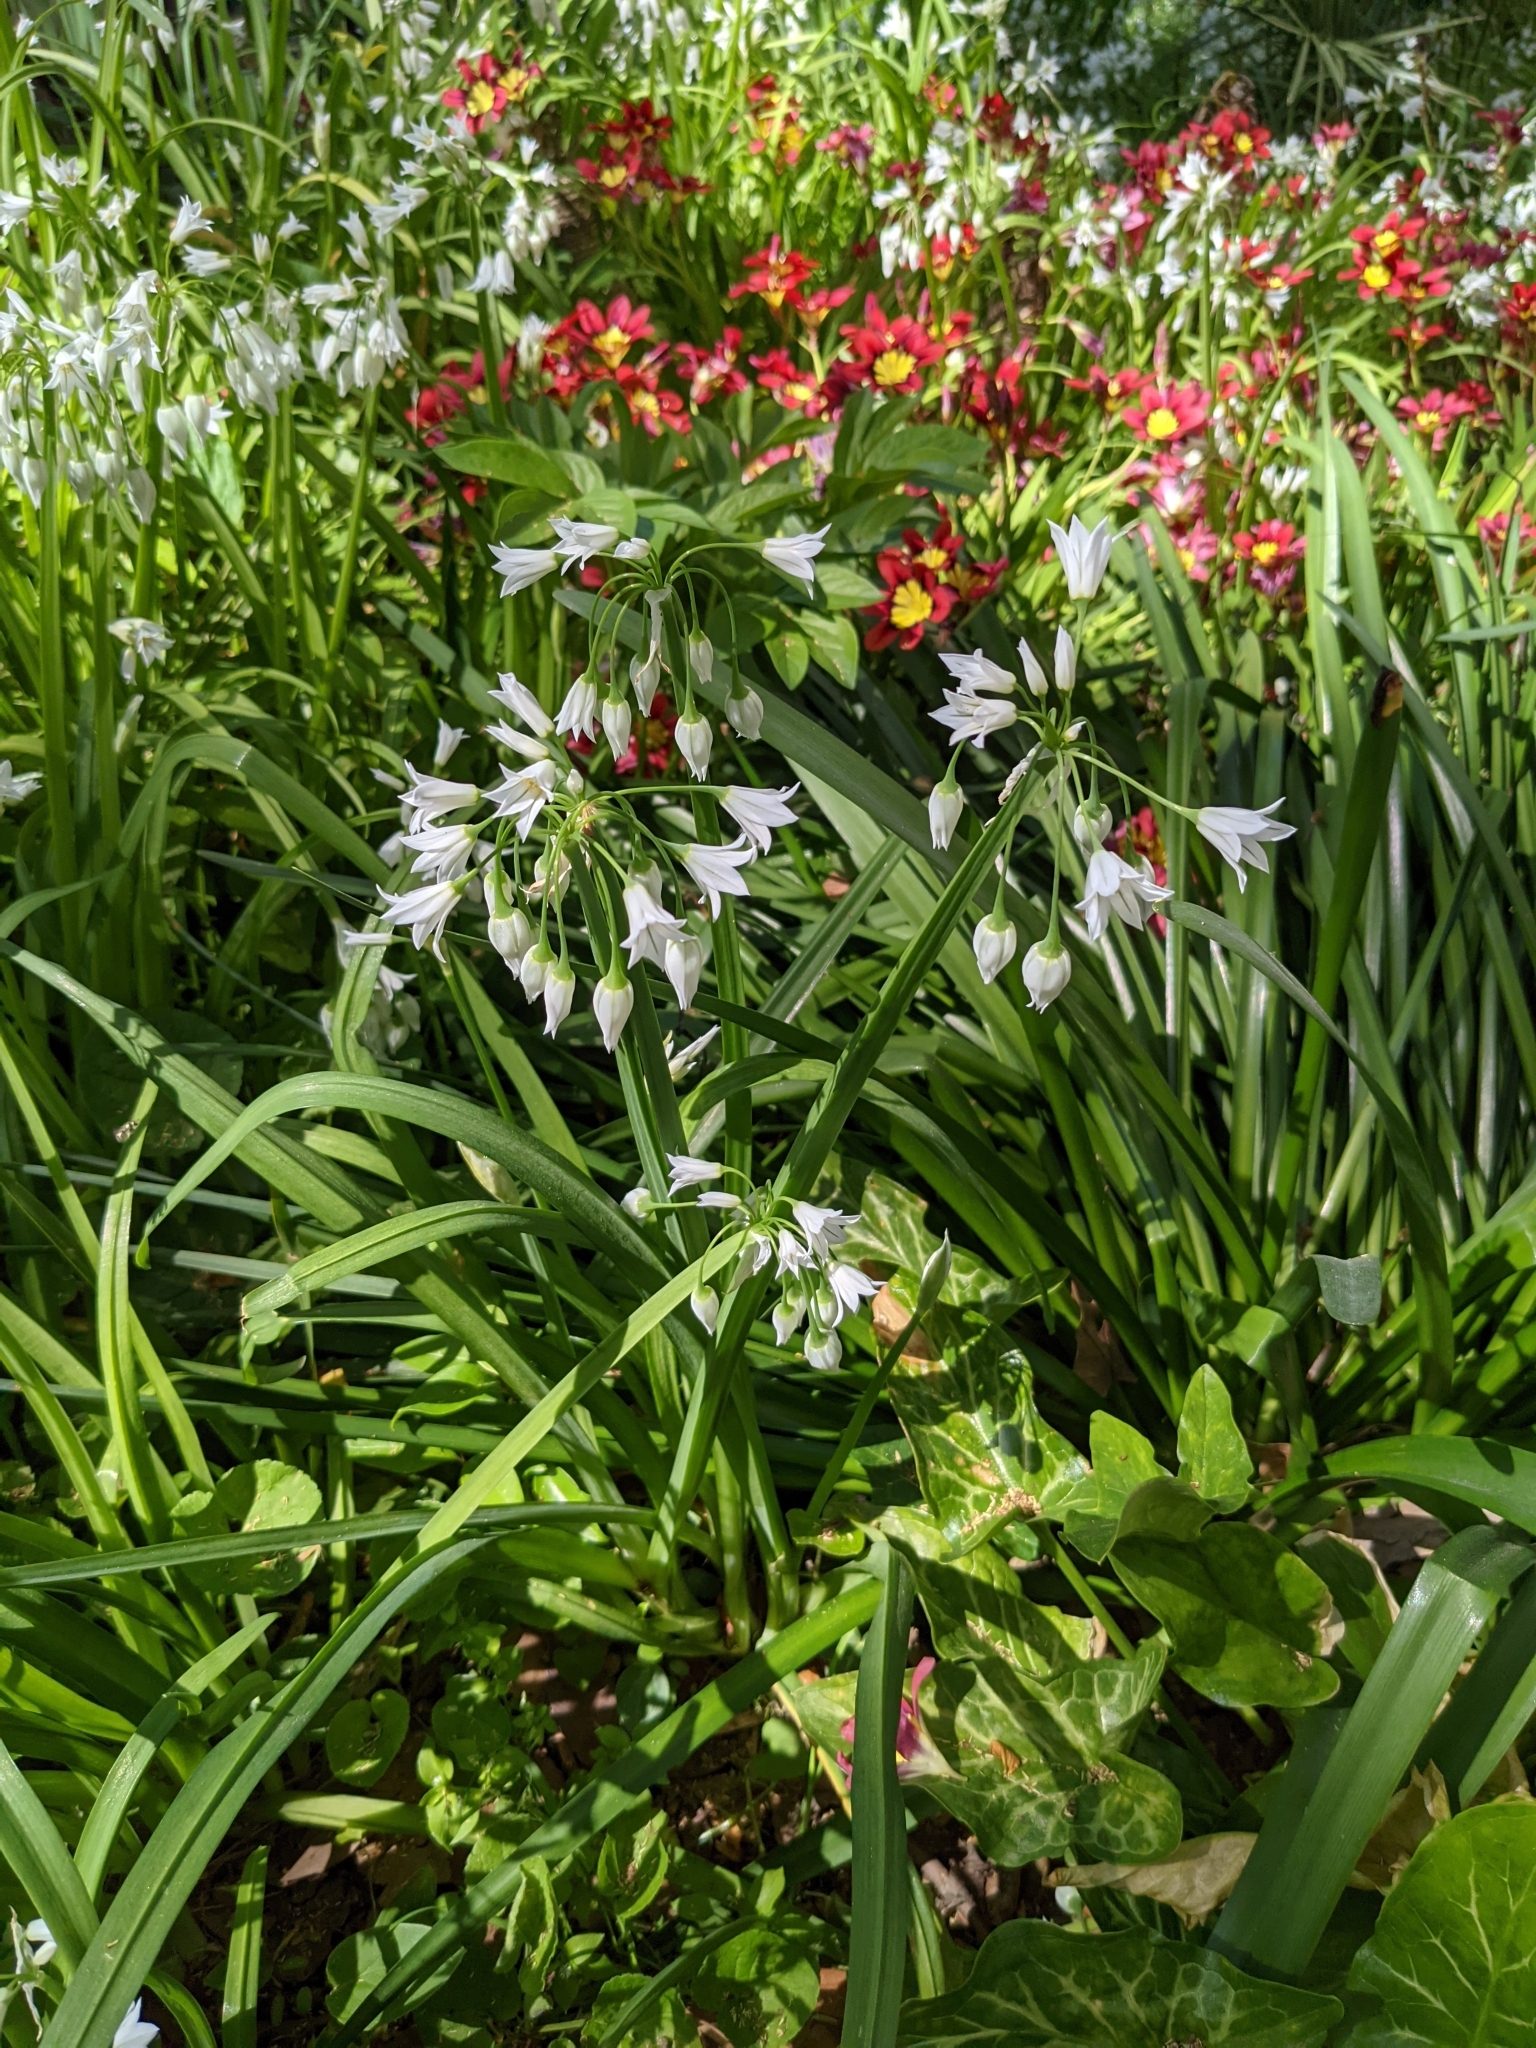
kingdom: Plantae
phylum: Tracheophyta
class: Liliopsida
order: Asparagales
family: Amaryllidaceae
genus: Allium
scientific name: Allium triquetrum
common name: Three-cornered garlic
